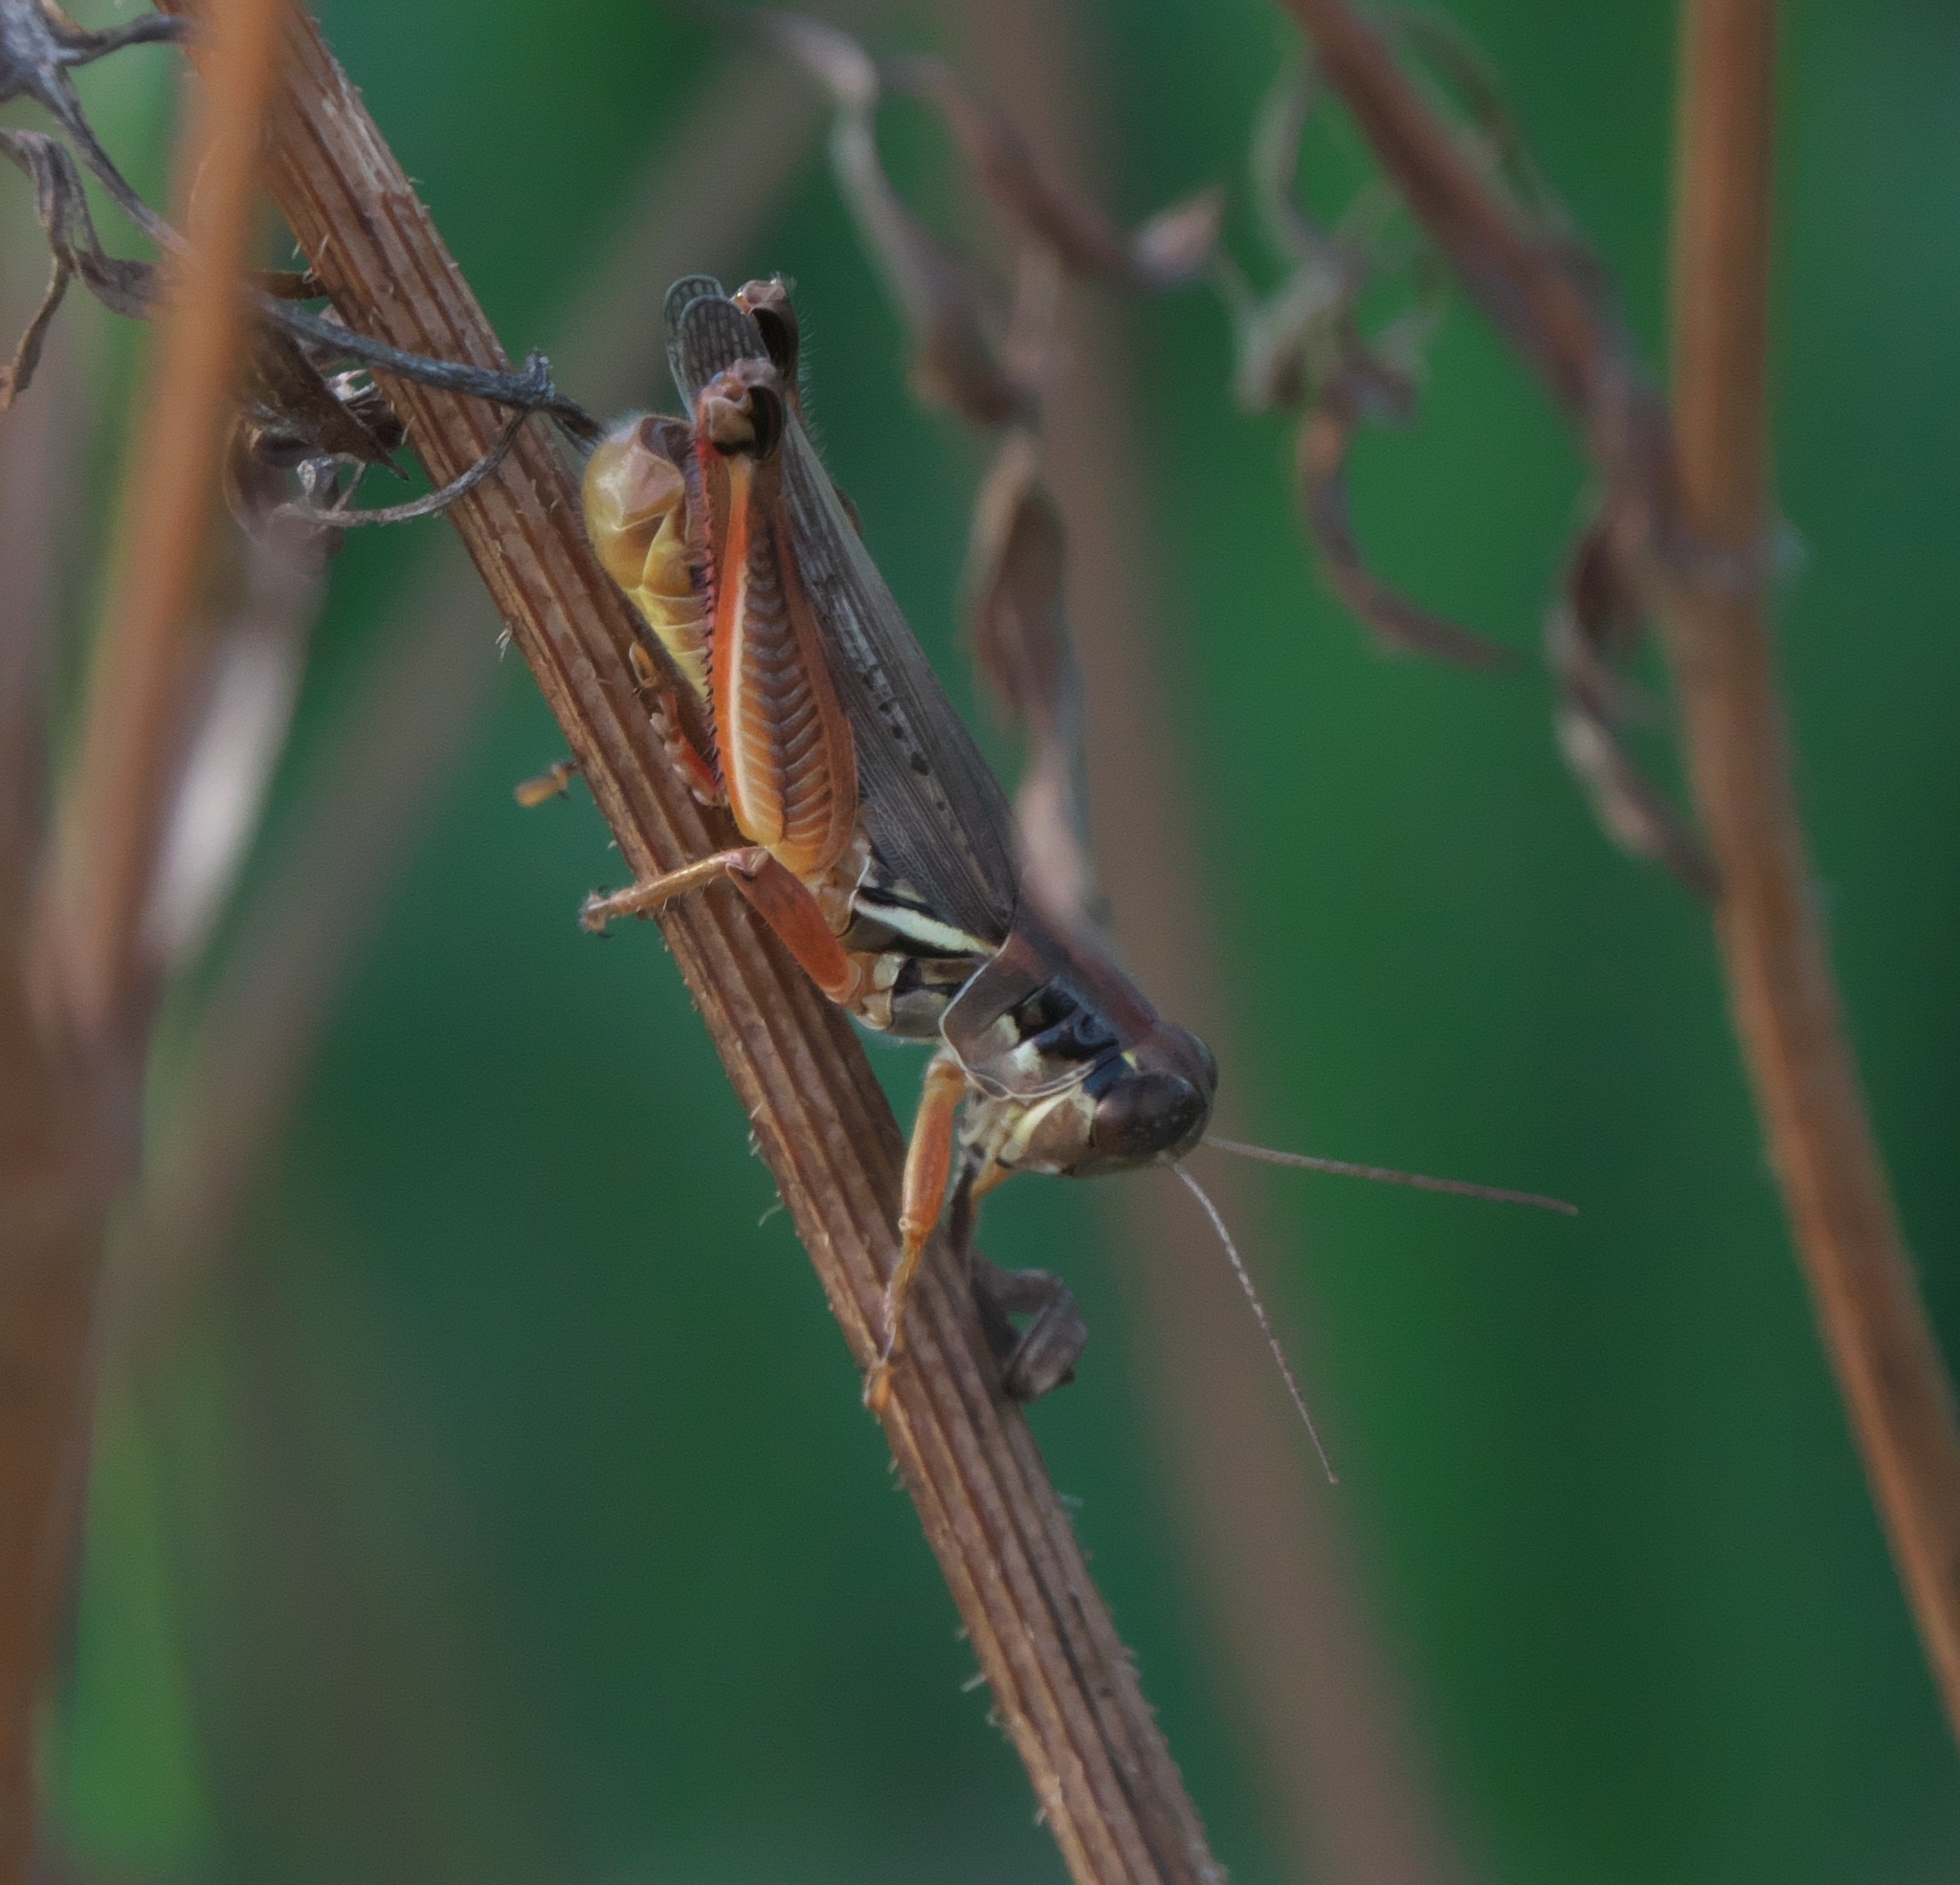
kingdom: Animalia
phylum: Arthropoda
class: Insecta
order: Orthoptera
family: Acrididae
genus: Melanoplus
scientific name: Melanoplus femurrubrum
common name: Red-legged grasshopper
